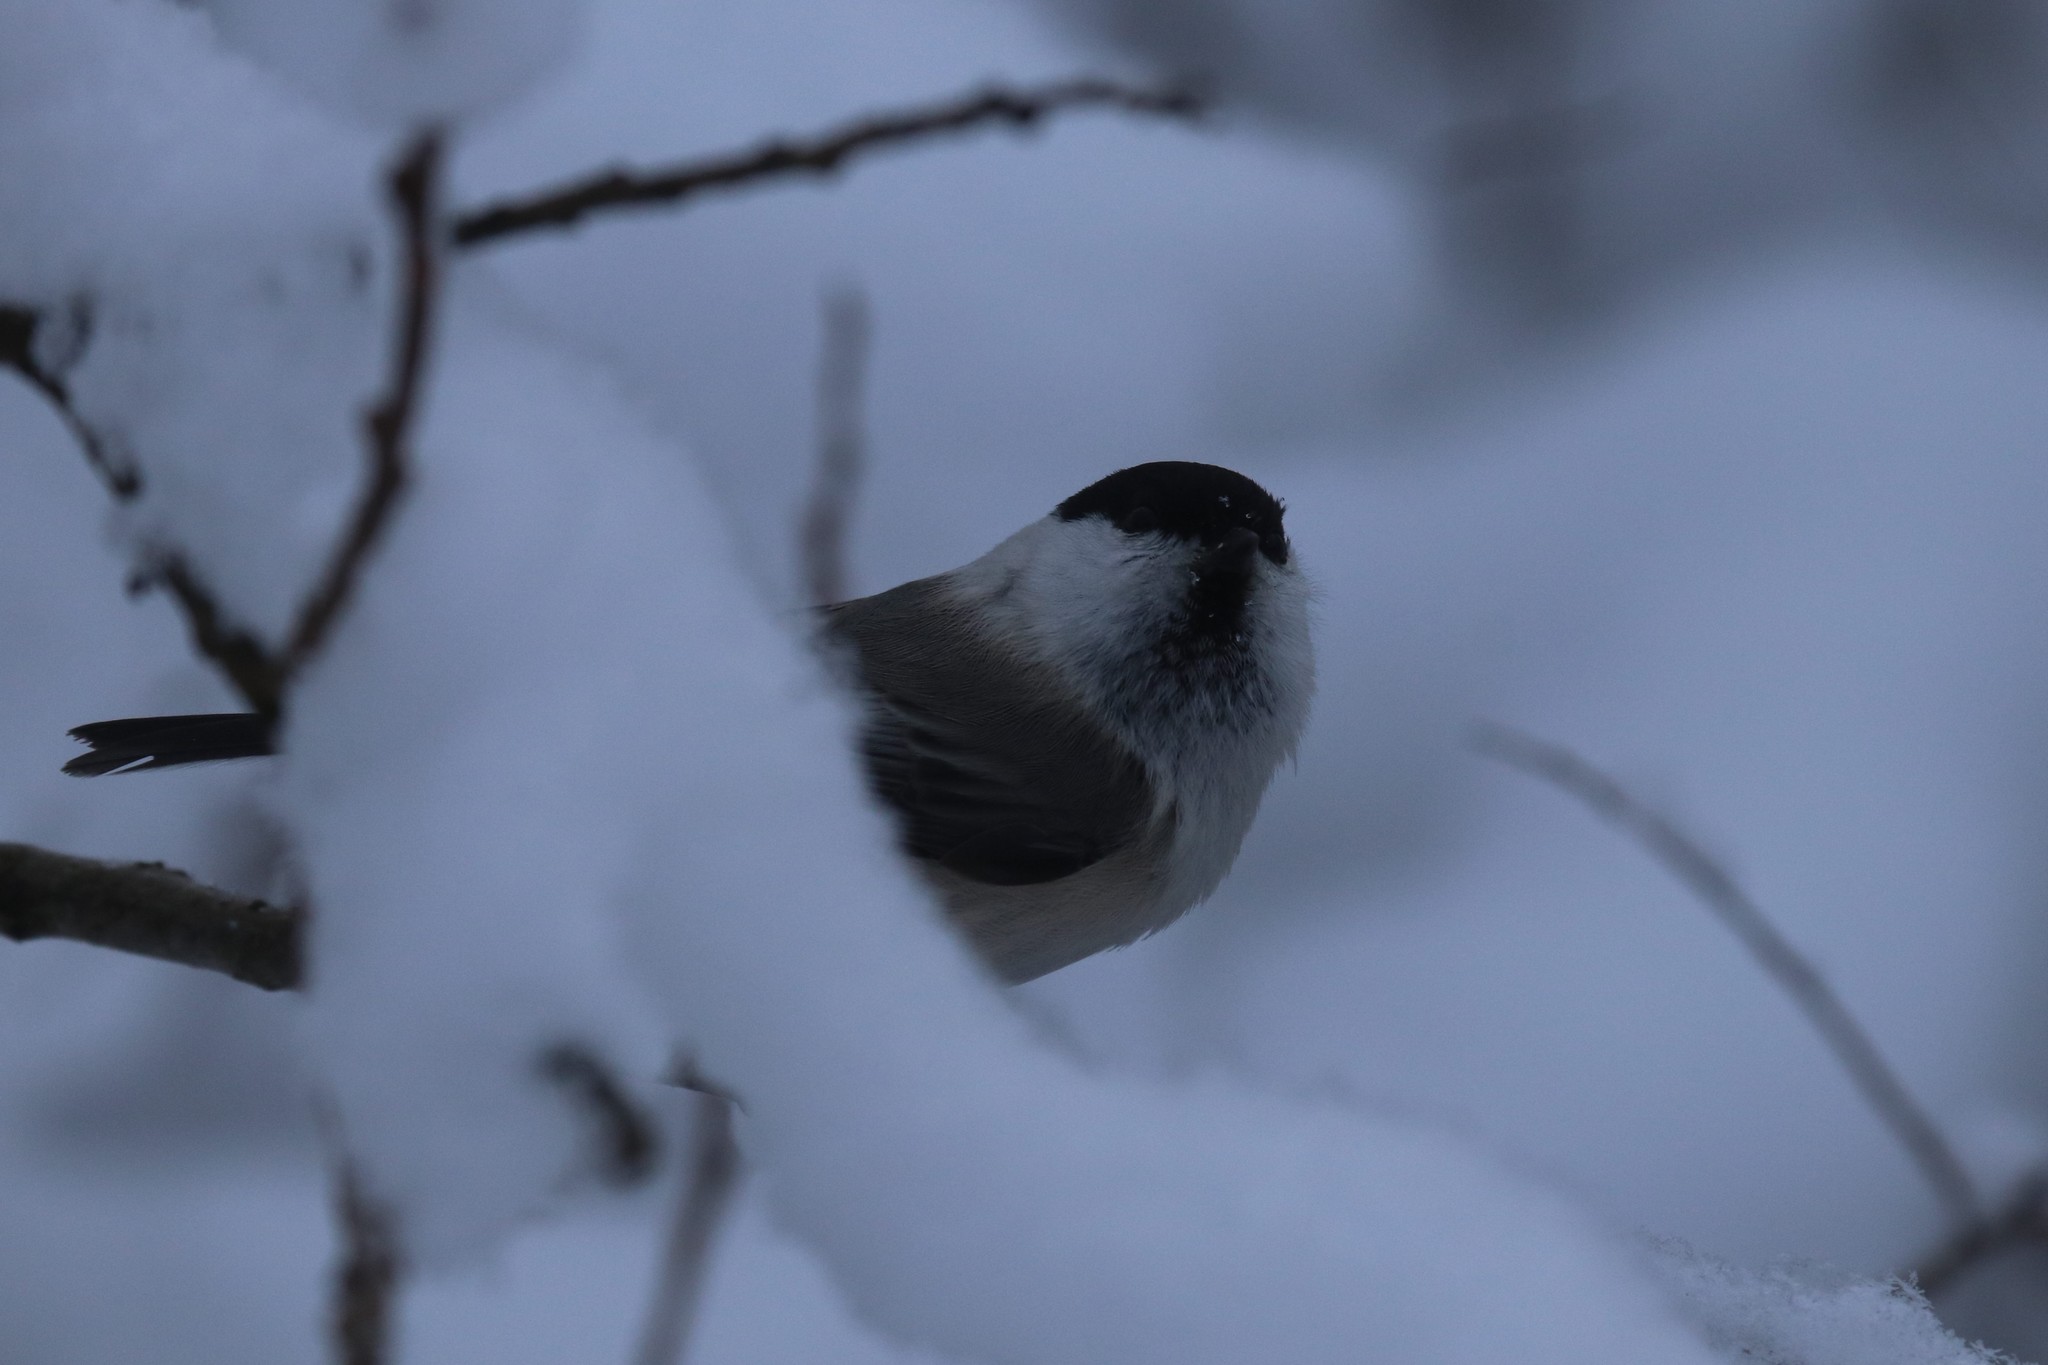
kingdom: Animalia
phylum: Chordata
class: Aves
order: Passeriformes
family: Paridae
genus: Poecile
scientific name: Poecile montanus
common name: Willow tit
